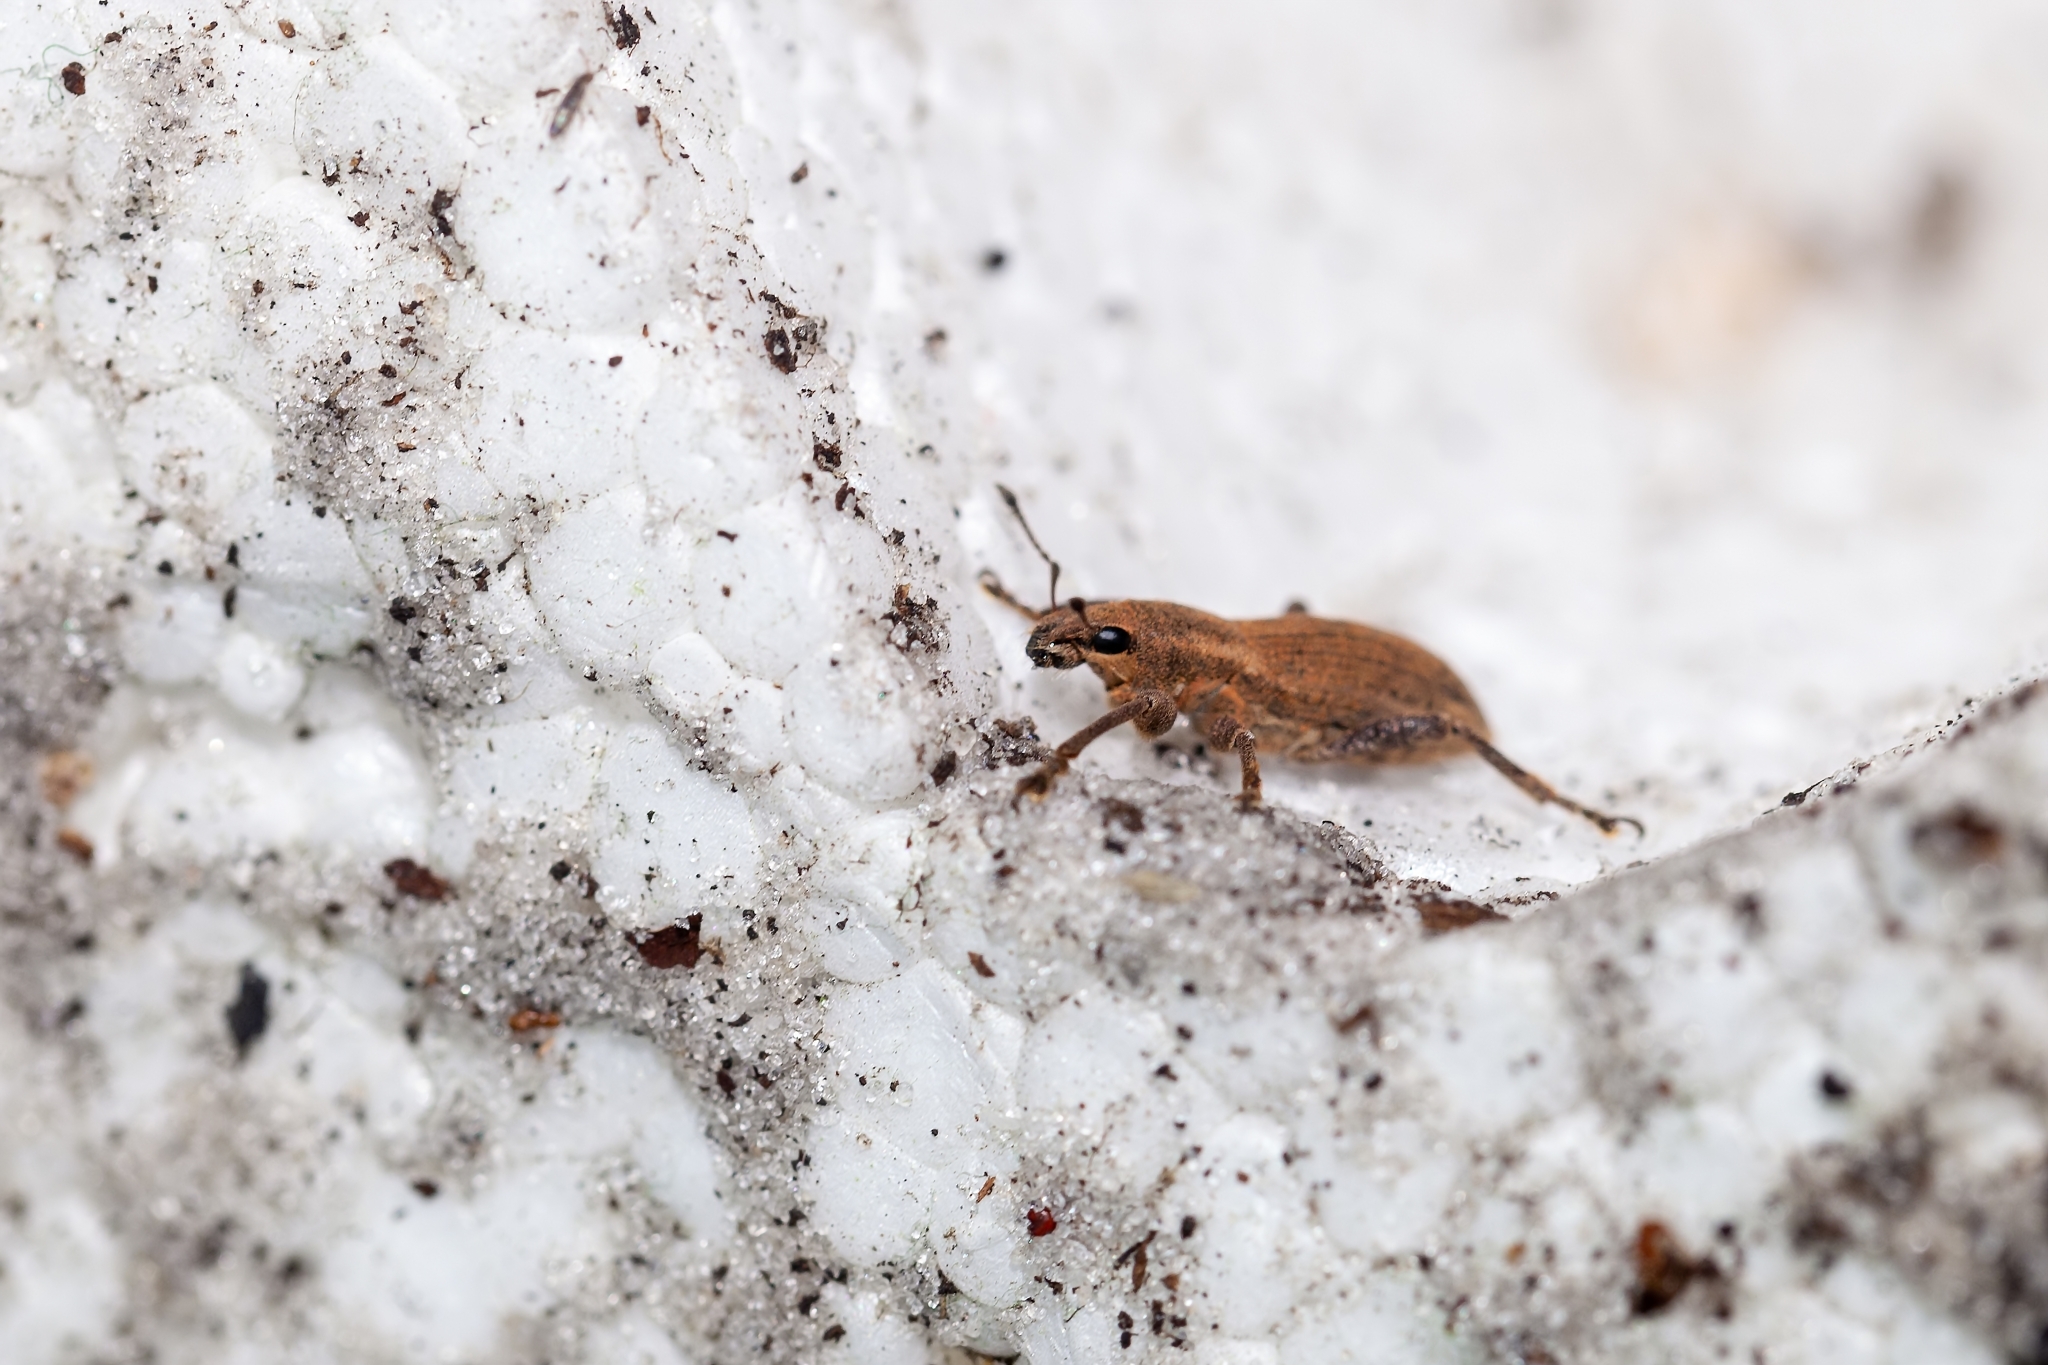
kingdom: Animalia
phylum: Arthropoda
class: Insecta
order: Coleoptera
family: Curculionidae
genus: Tanymecus
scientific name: Tanymecus lacaena
